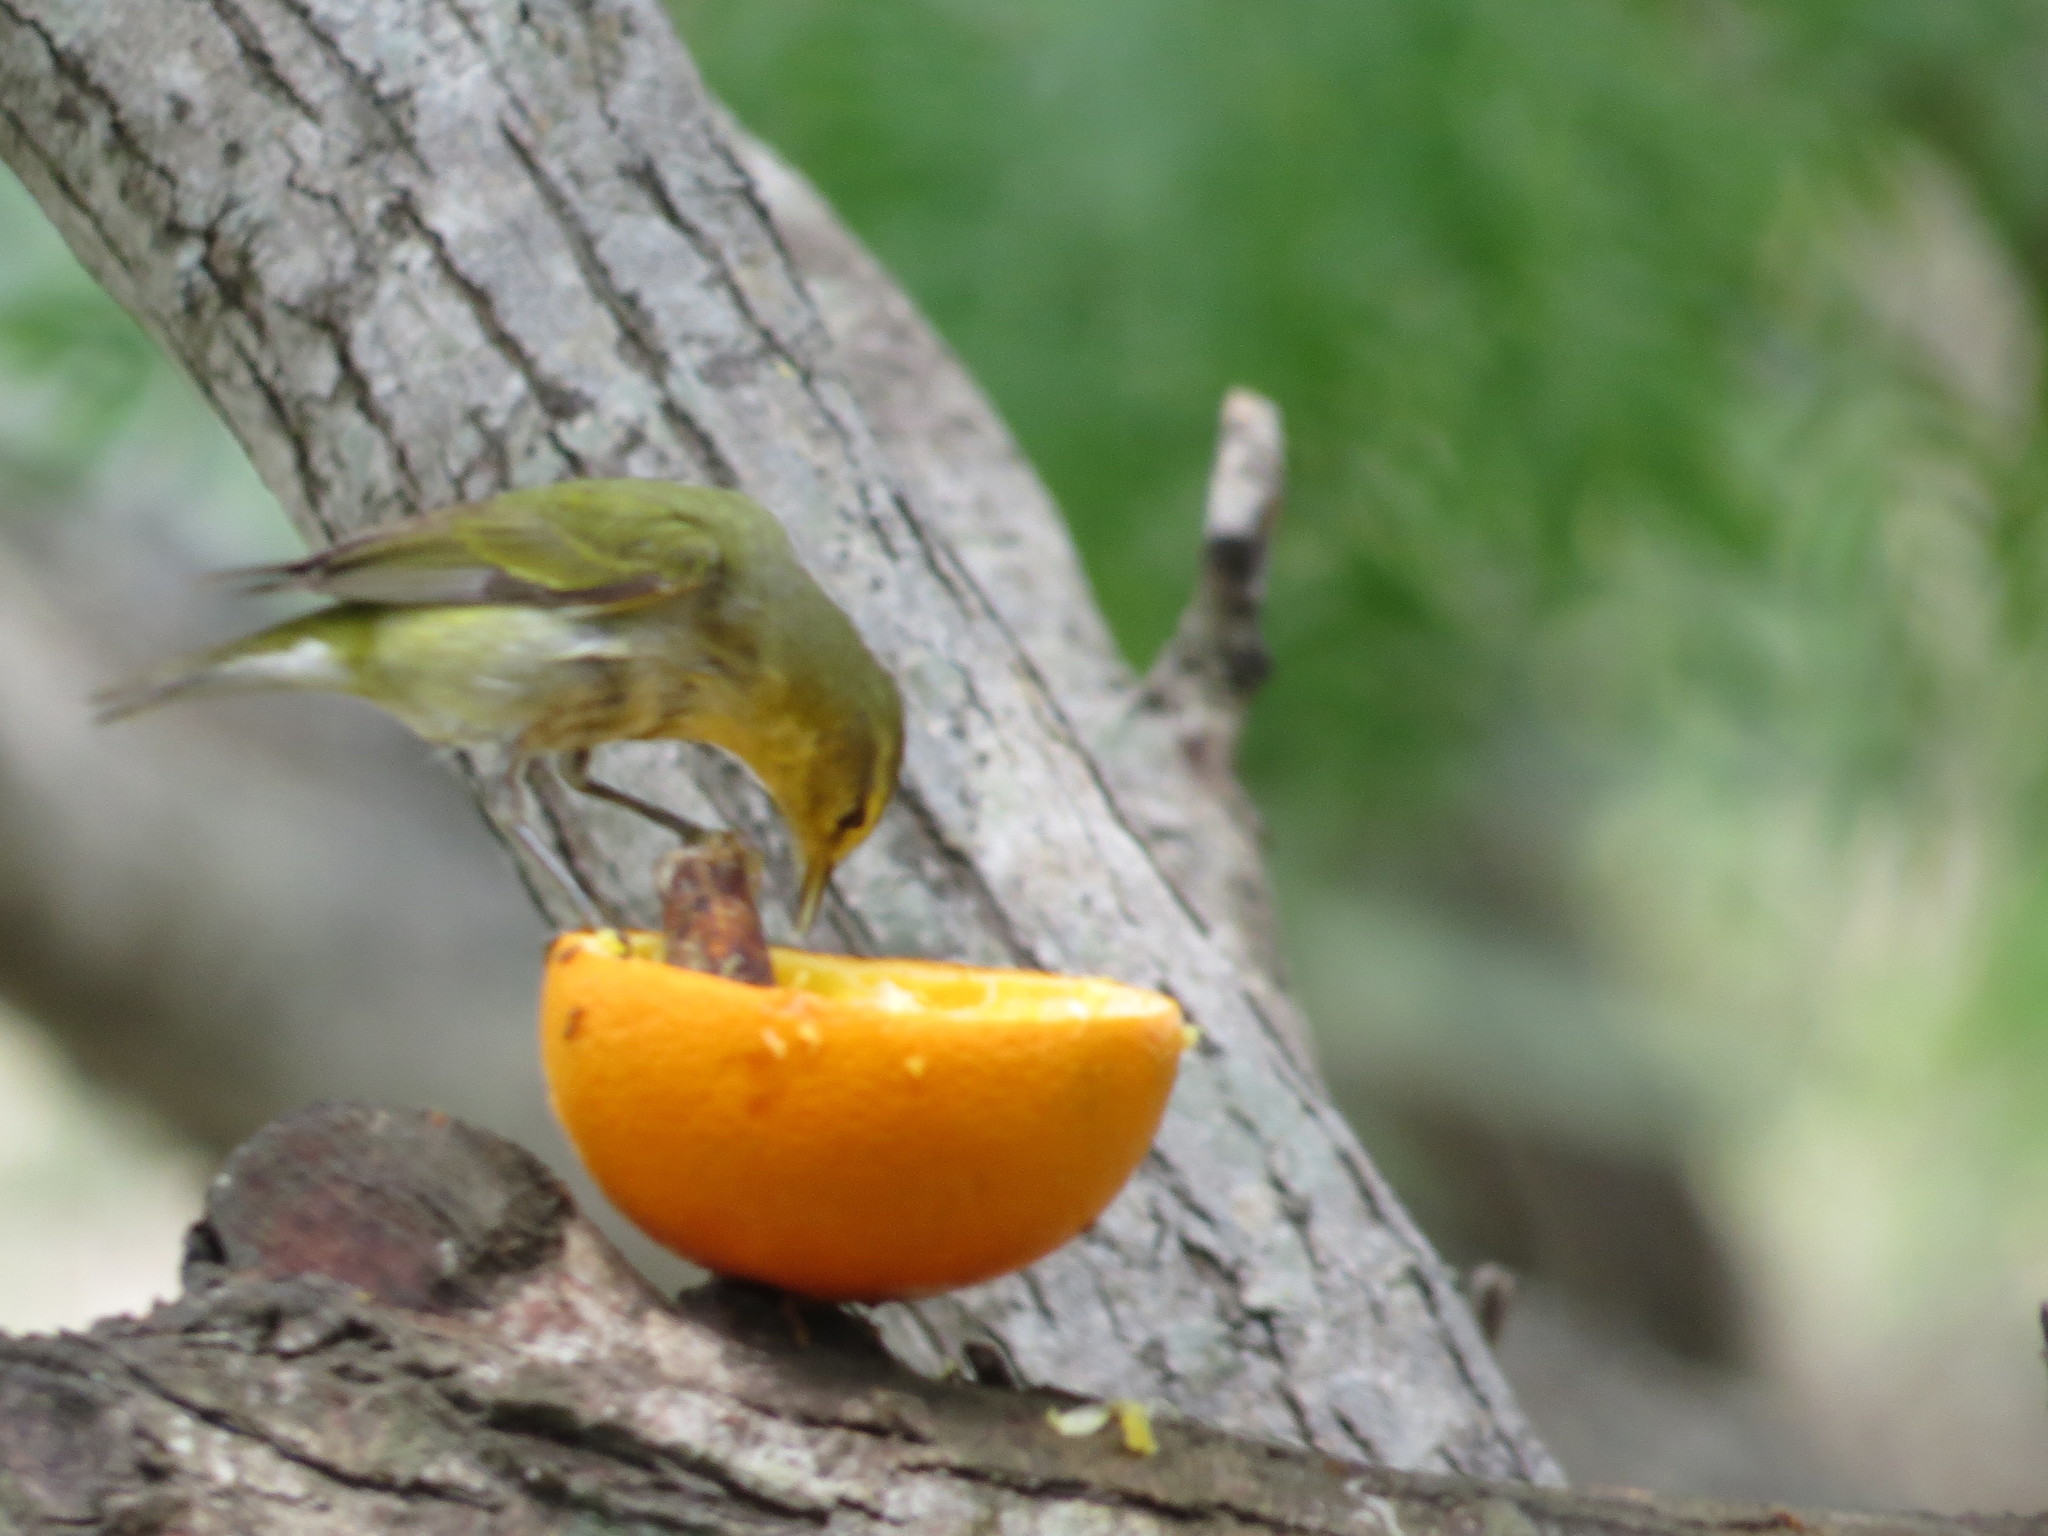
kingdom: Animalia
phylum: Chordata
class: Aves
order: Passeriformes
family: Parulidae
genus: Leiothlypis
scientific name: Leiothlypis peregrina
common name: Tennessee warbler
